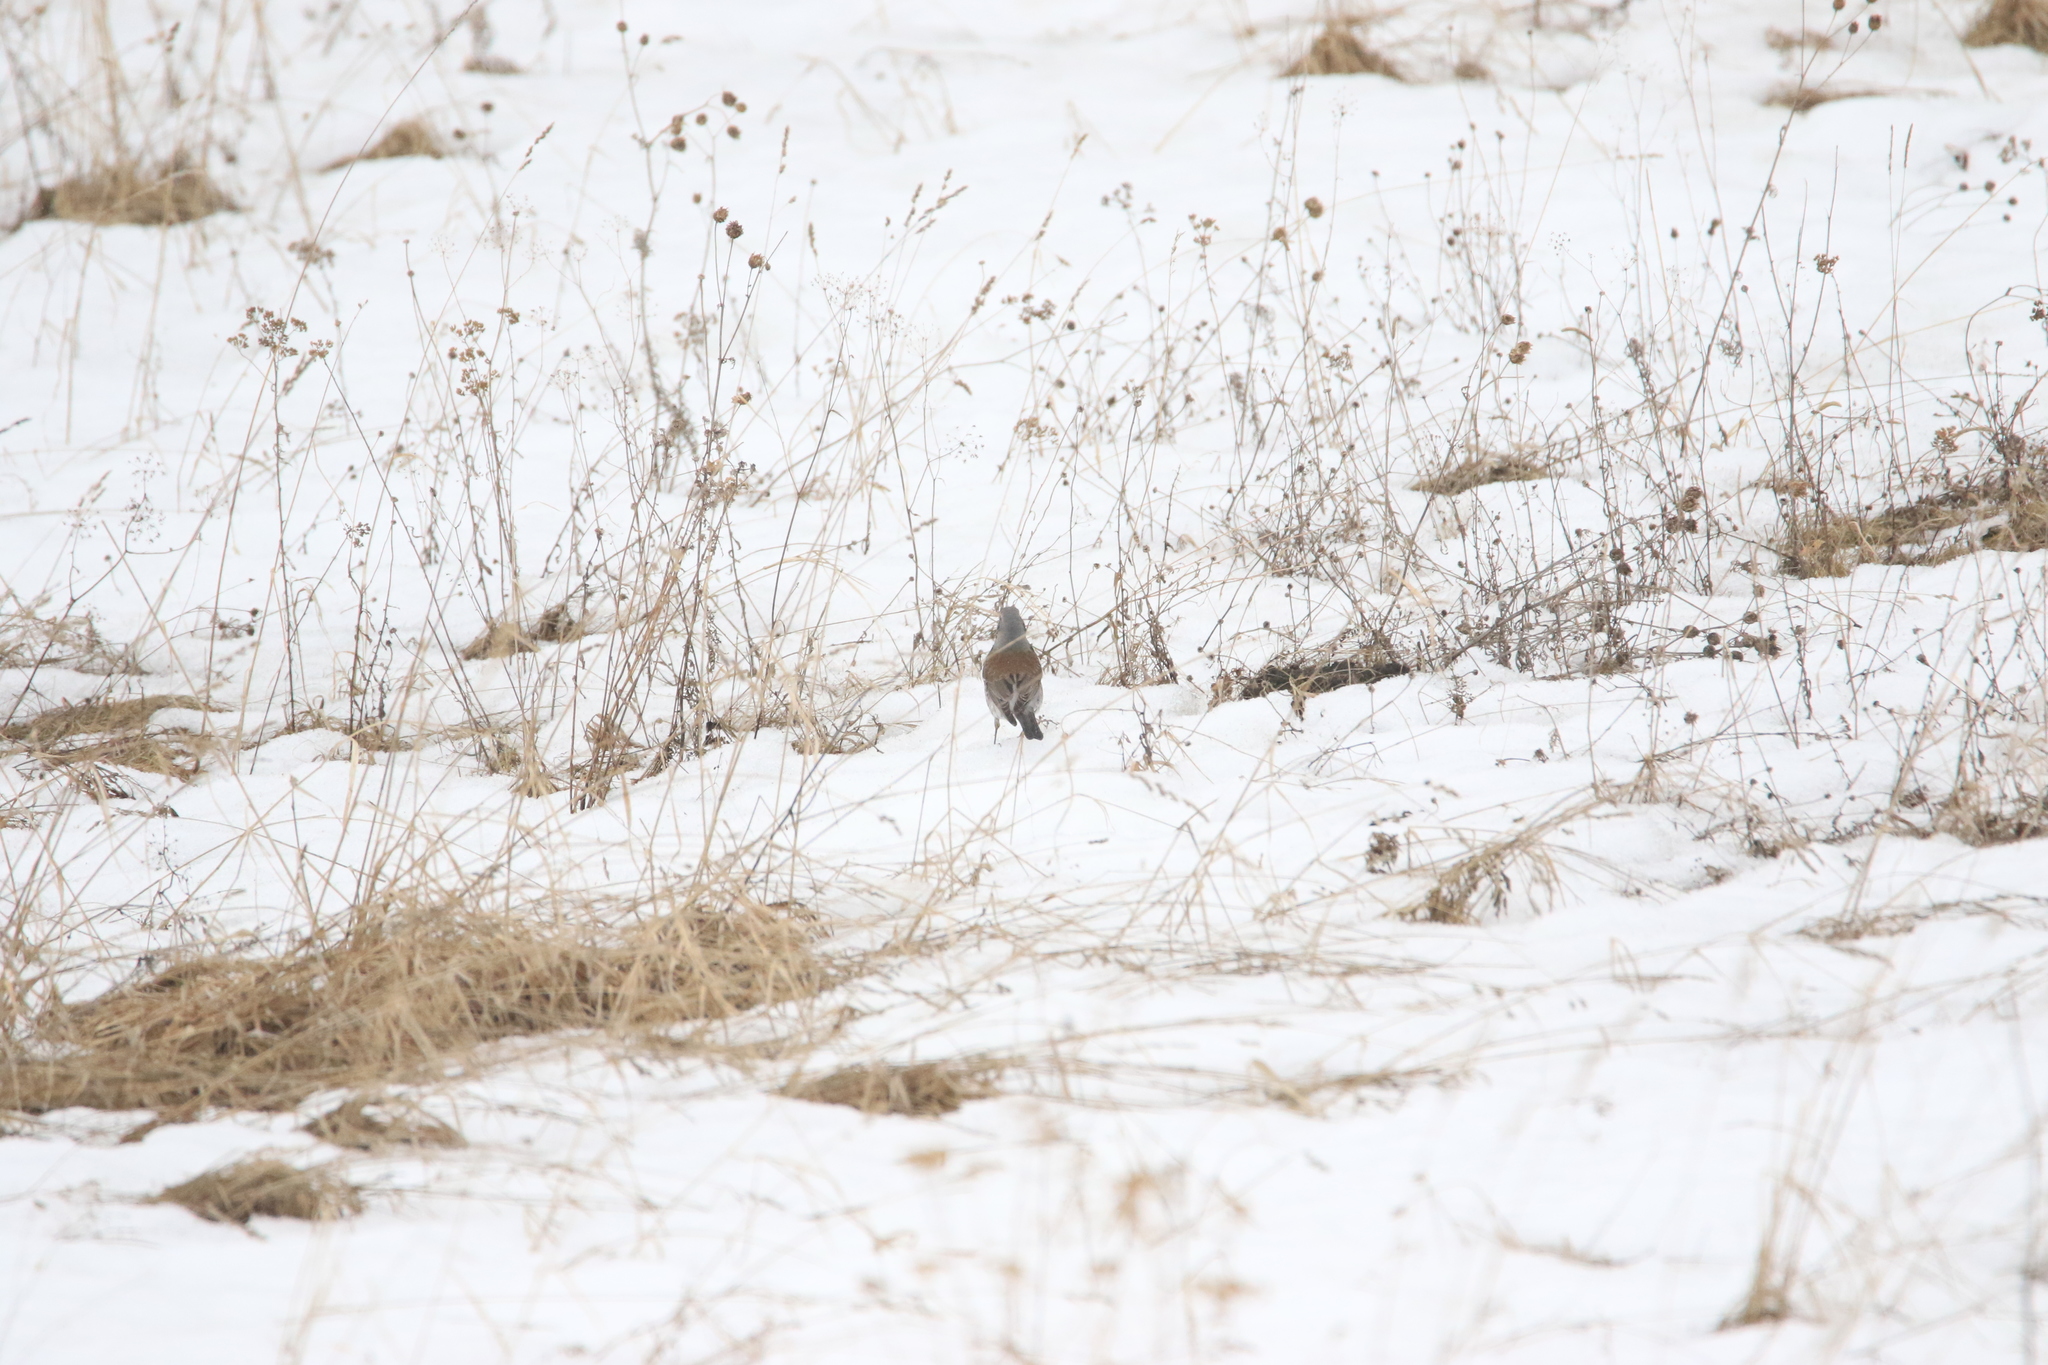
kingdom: Animalia
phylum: Chordata
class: Aves
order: Passeriformes
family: Turdidae
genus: Turdus
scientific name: Turdus pilaris
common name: Fieldfare
